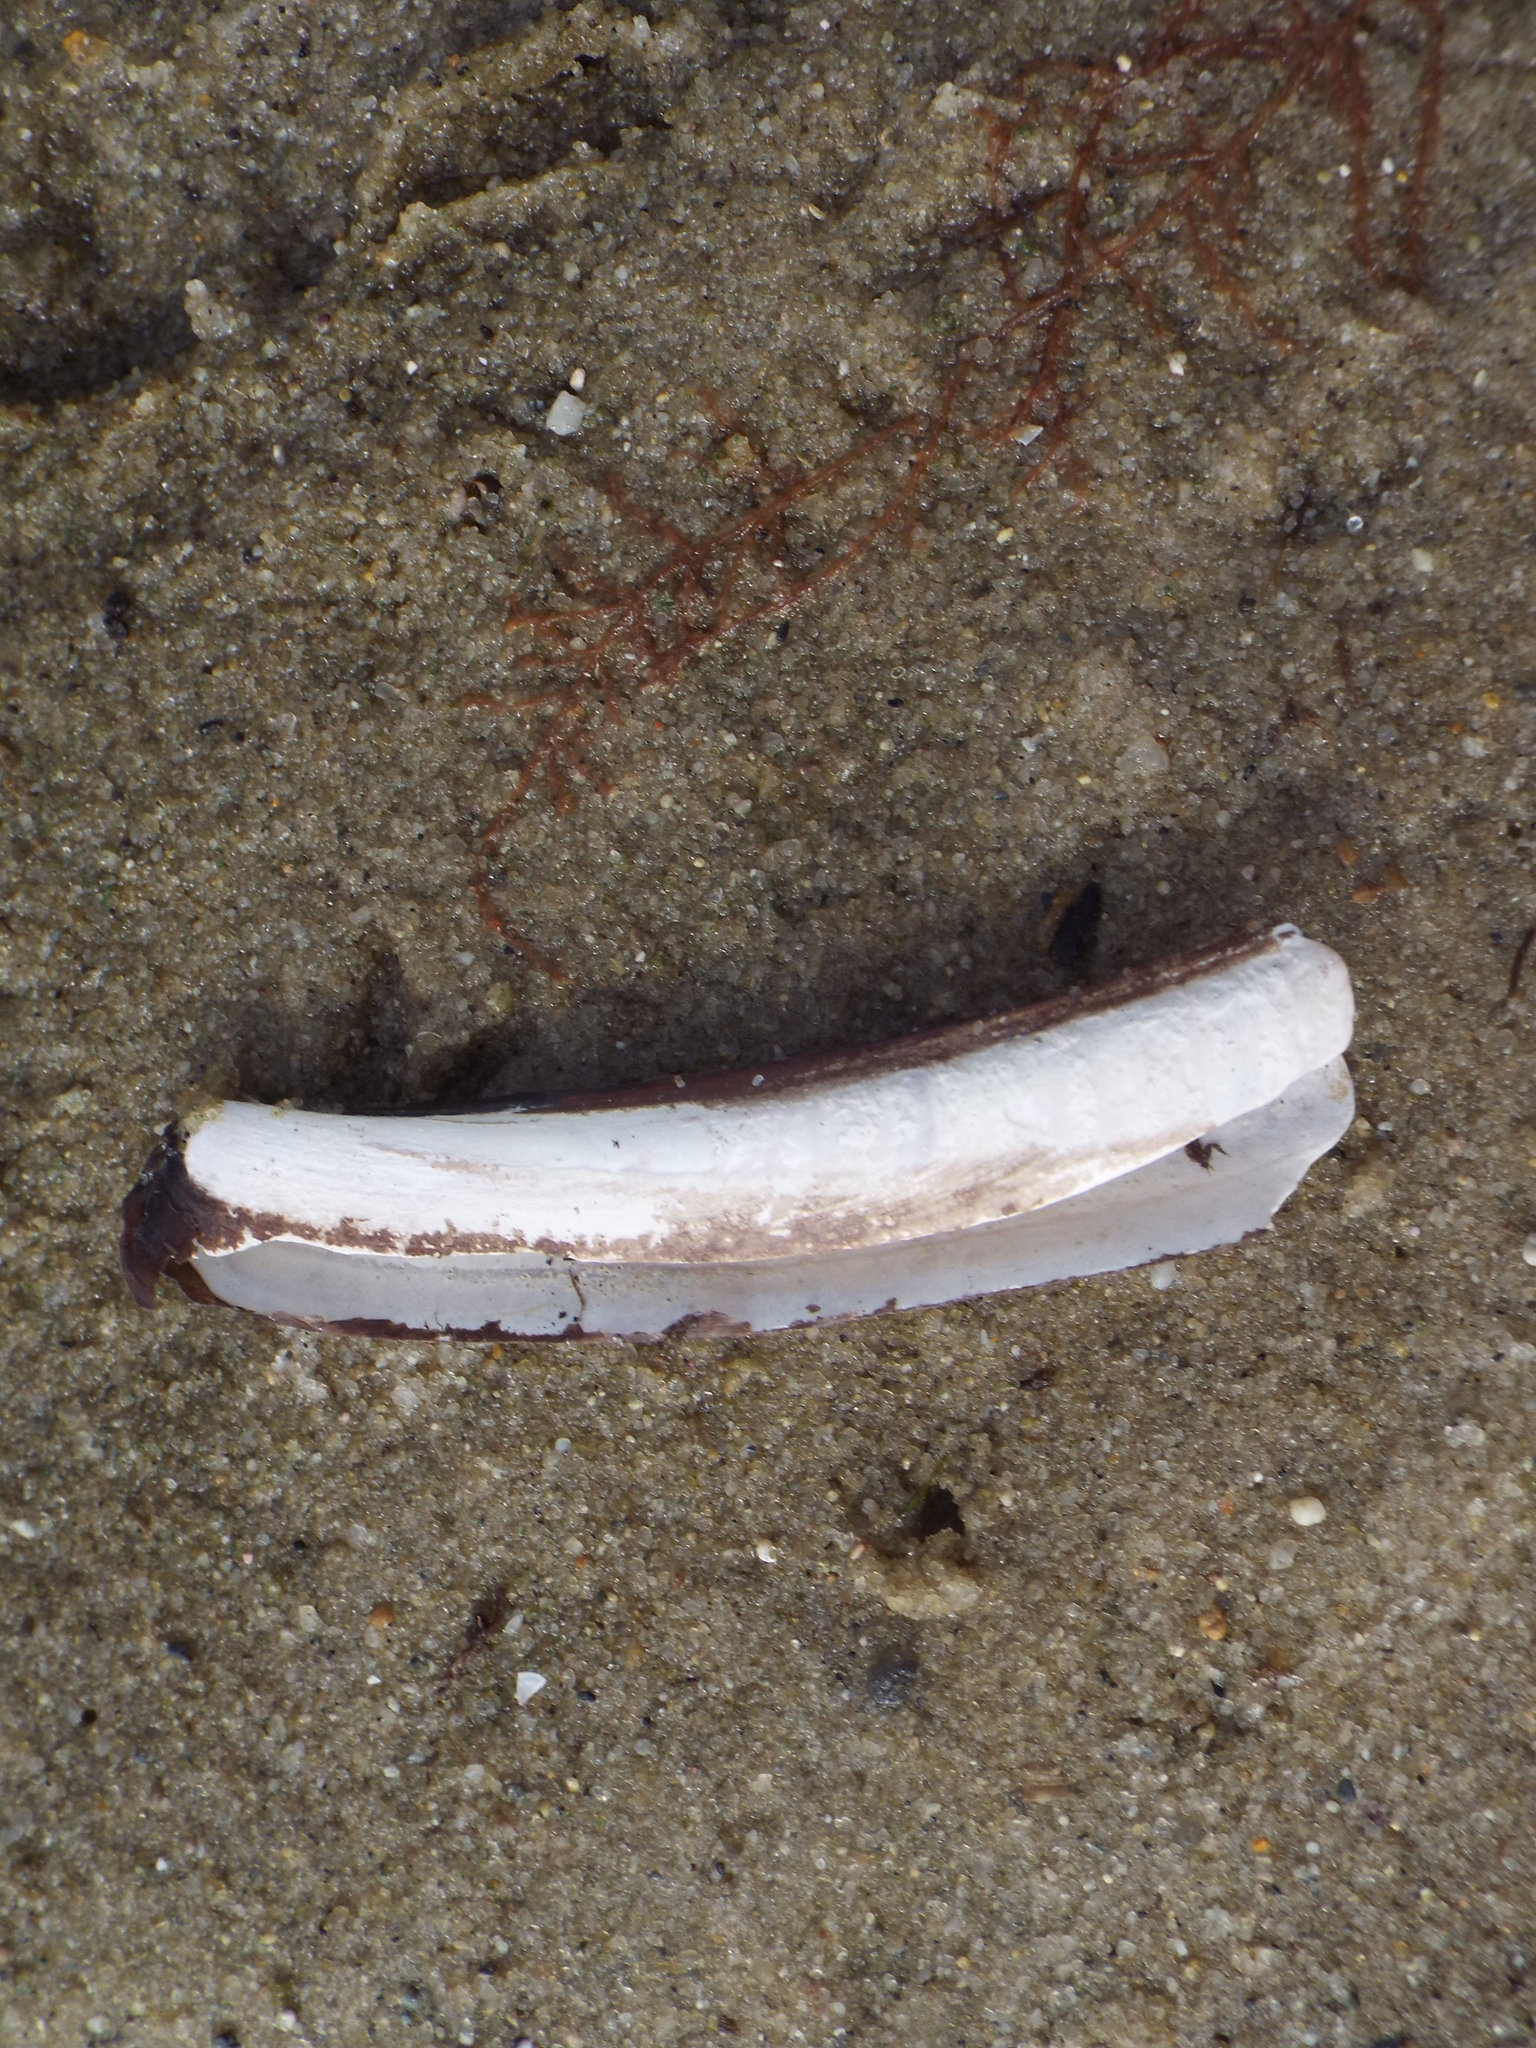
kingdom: Animalia
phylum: Mollusca
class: Bivalvia
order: Adapedonta
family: Pharidae
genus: Ensis
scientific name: Ensis leei
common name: American jack knife clam
